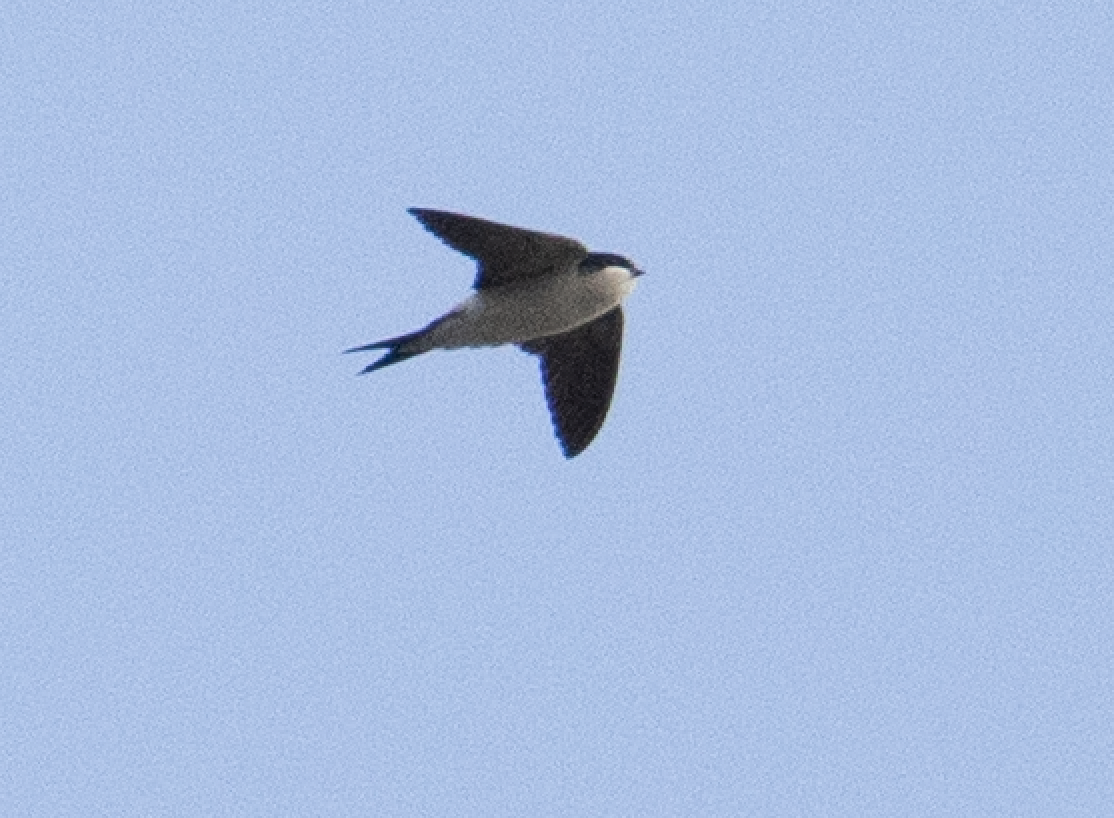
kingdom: Animalia
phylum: Chordata
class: Aves
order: Passeriformes
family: Hirundinidae
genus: Delichon
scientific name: Delichon urbicum
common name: Common house martin
